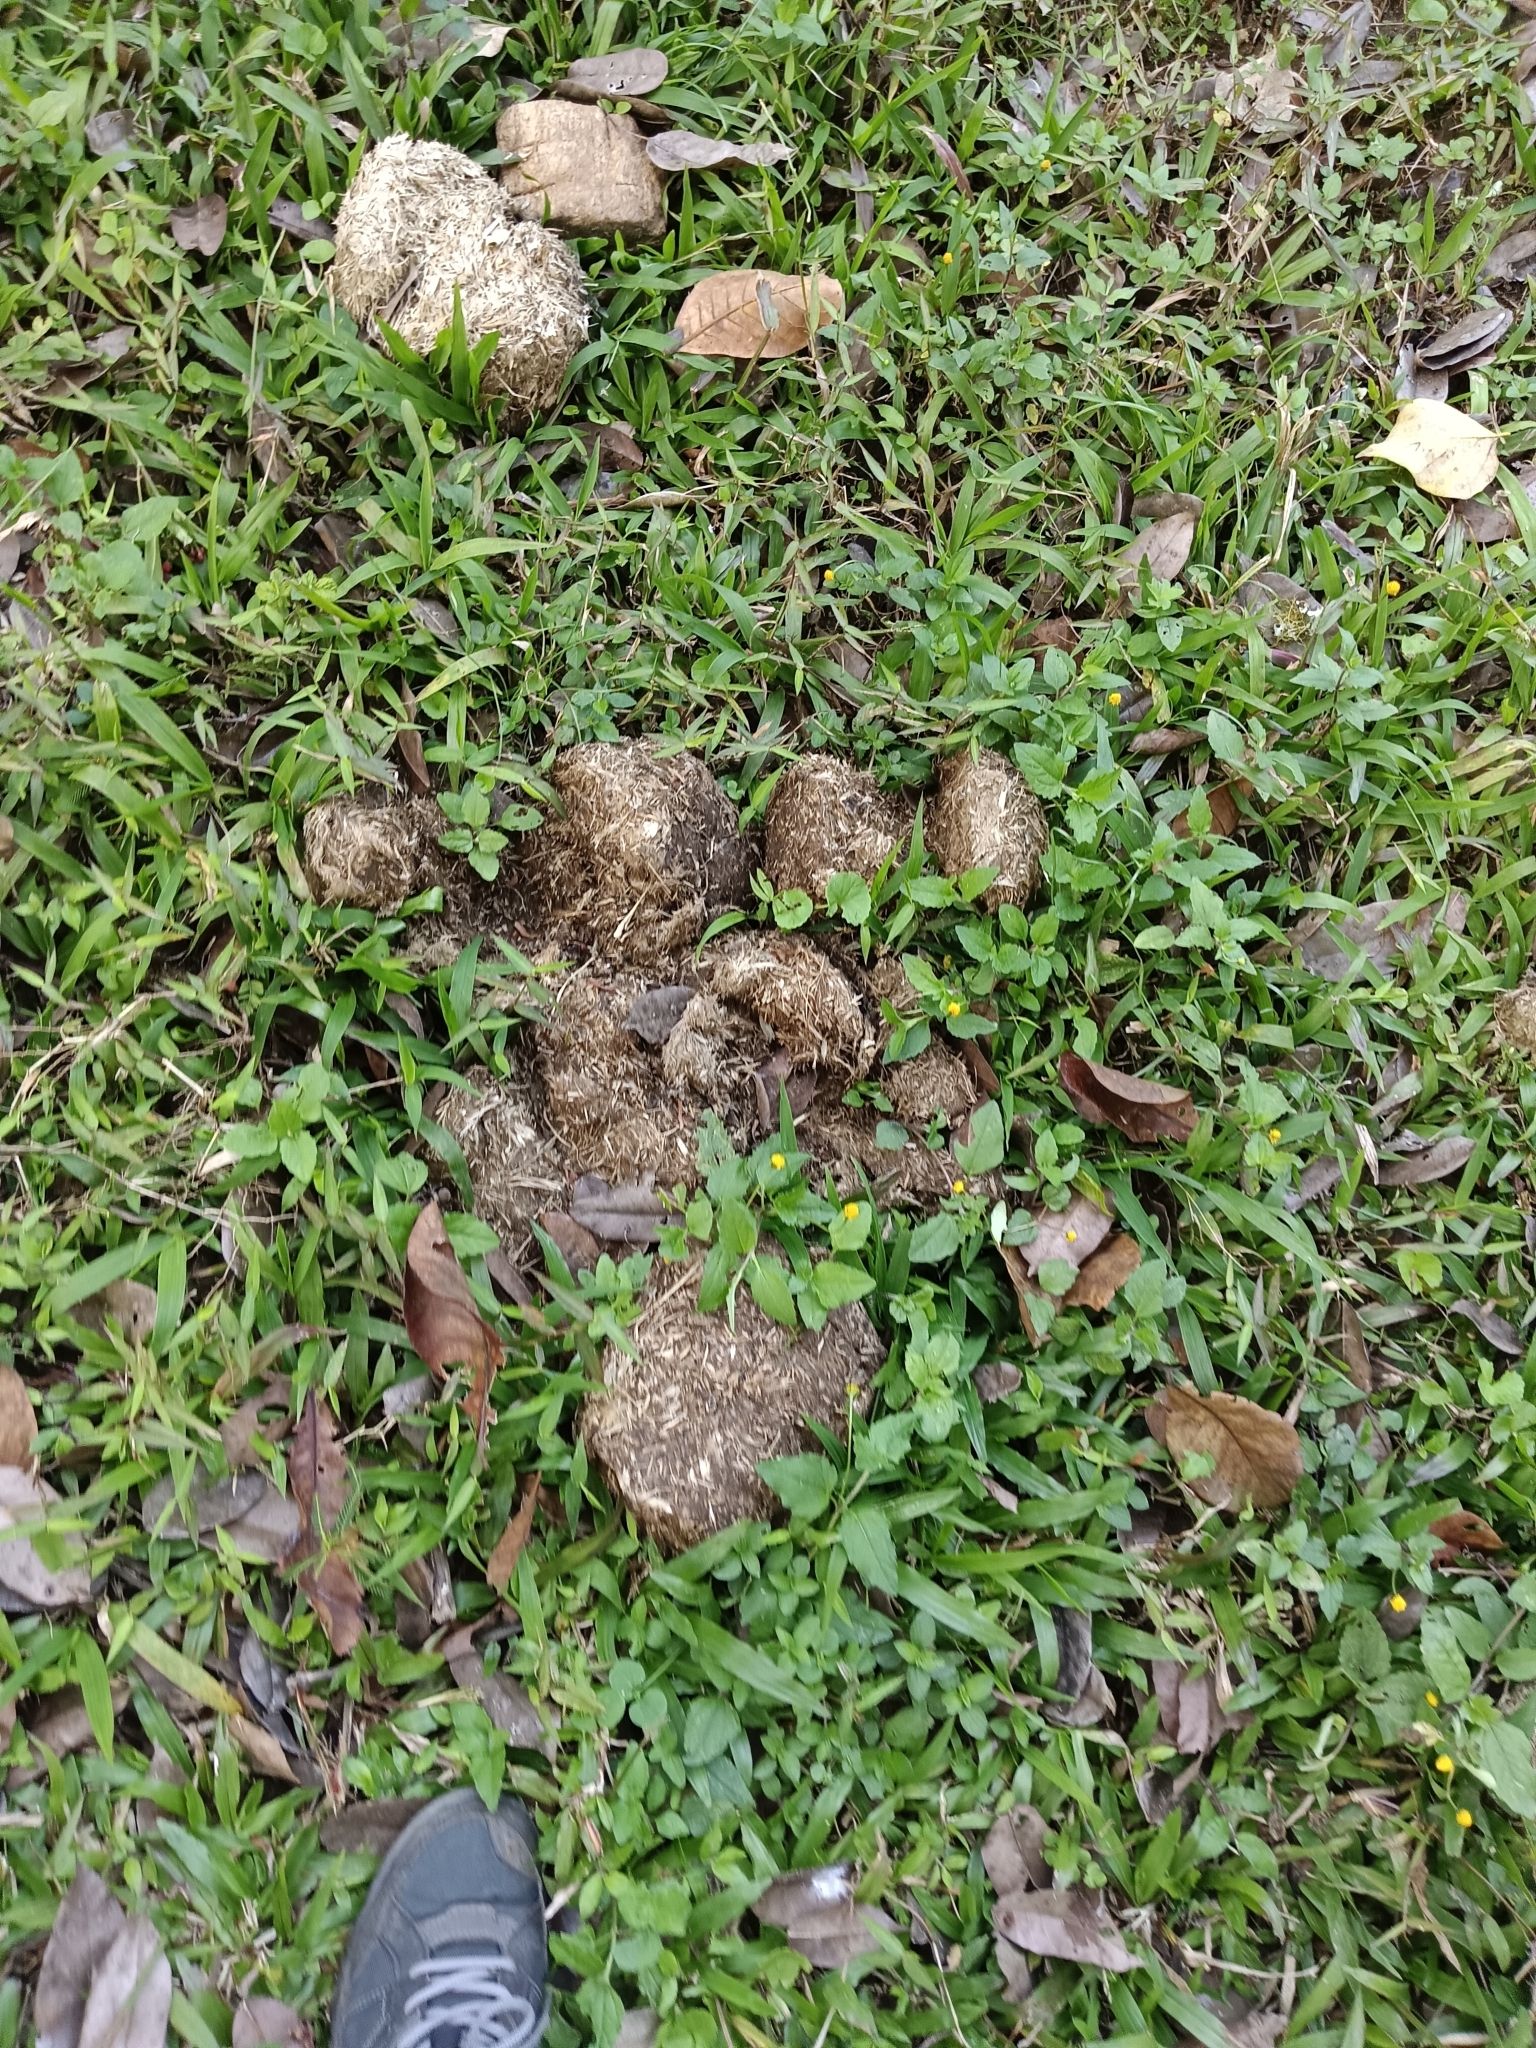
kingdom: Animalia
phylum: Chordata
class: Mammalia
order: Proboscidea
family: Elephantidae
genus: Elephas
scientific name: Elephas maximus
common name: Asian elephant
